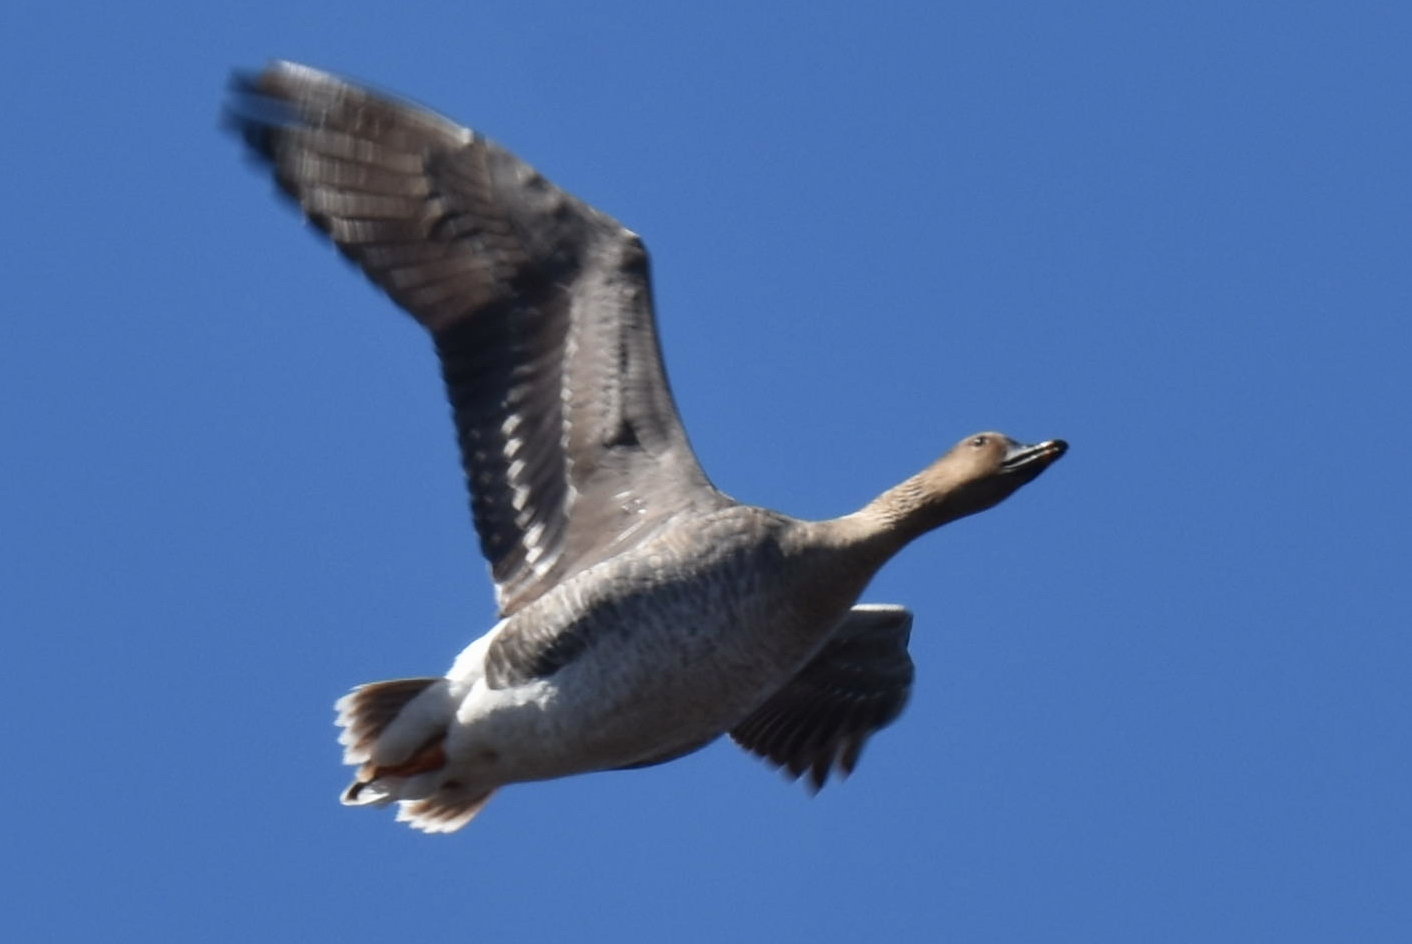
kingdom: Animalia
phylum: Chordata
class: Aves
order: Anseriformes
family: Anatidae
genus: Anser
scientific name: Anser fabalis
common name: Bean goose
